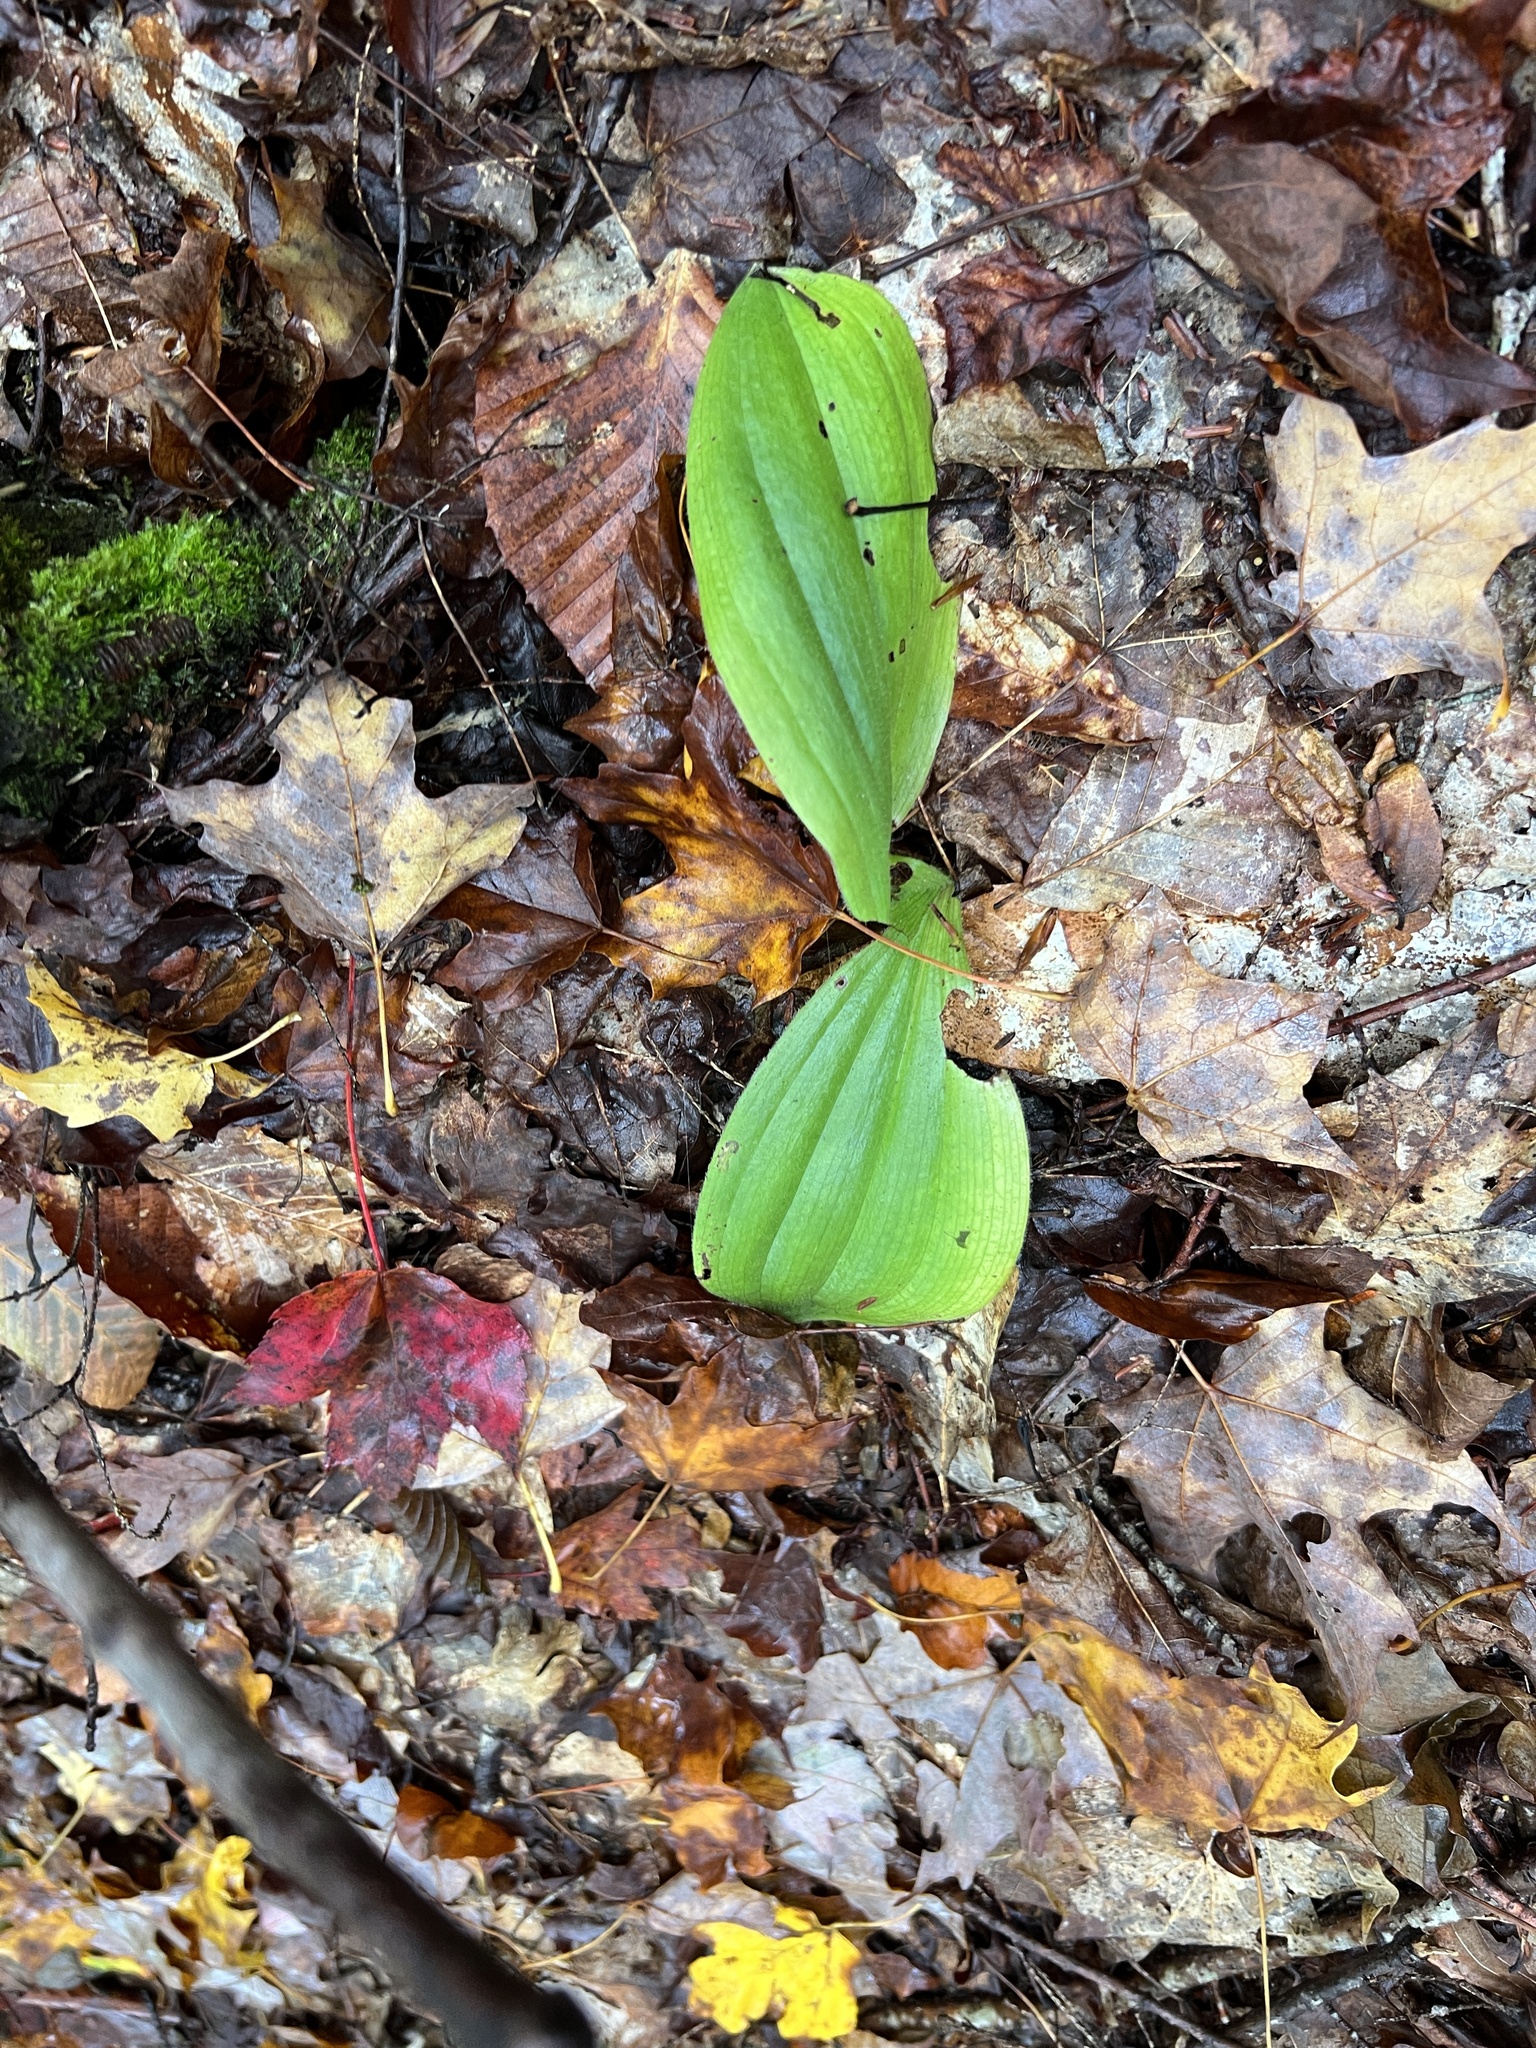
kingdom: Plantae
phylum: Tracheophyta
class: Liliopsida
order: Asparagales
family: Orchidaceae
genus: Cypripedium
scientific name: Cypripedium acaule
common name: Pink lady's-slipper
